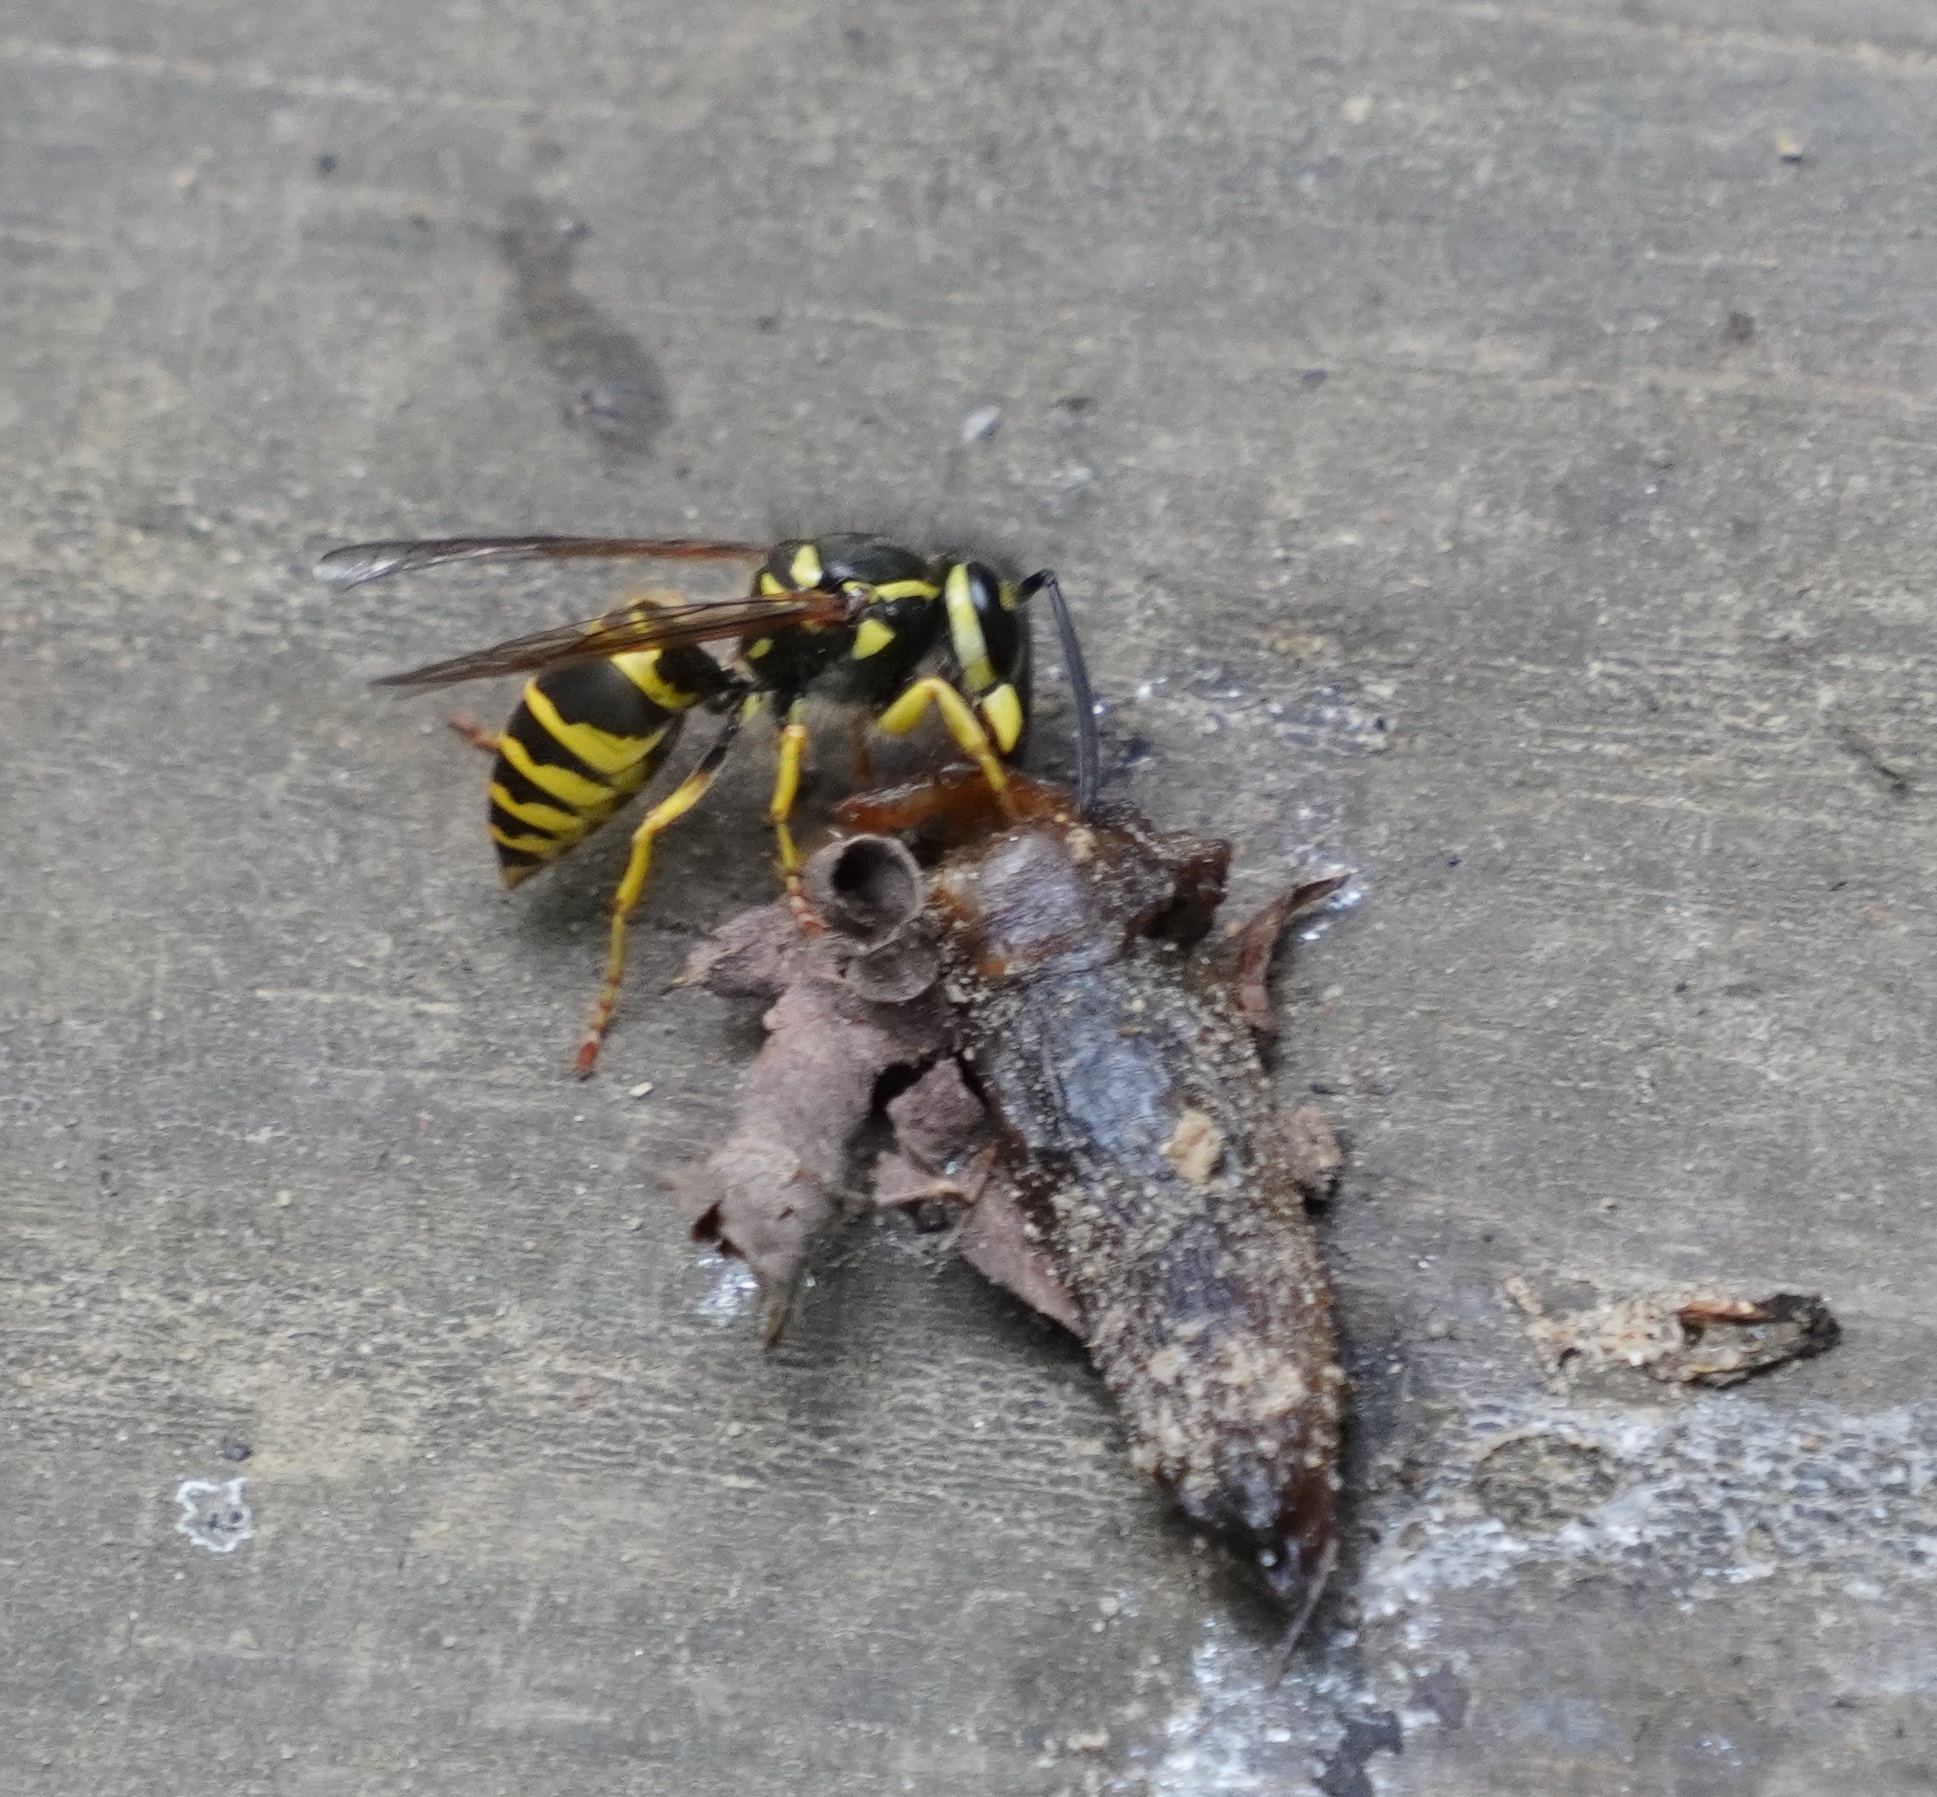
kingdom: Animalia
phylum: Arthropoda
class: Insecta
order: Hymenoptera
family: Vespidae
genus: Vespula
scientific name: Vespula maculifrons
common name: Eastern yellowjacket
